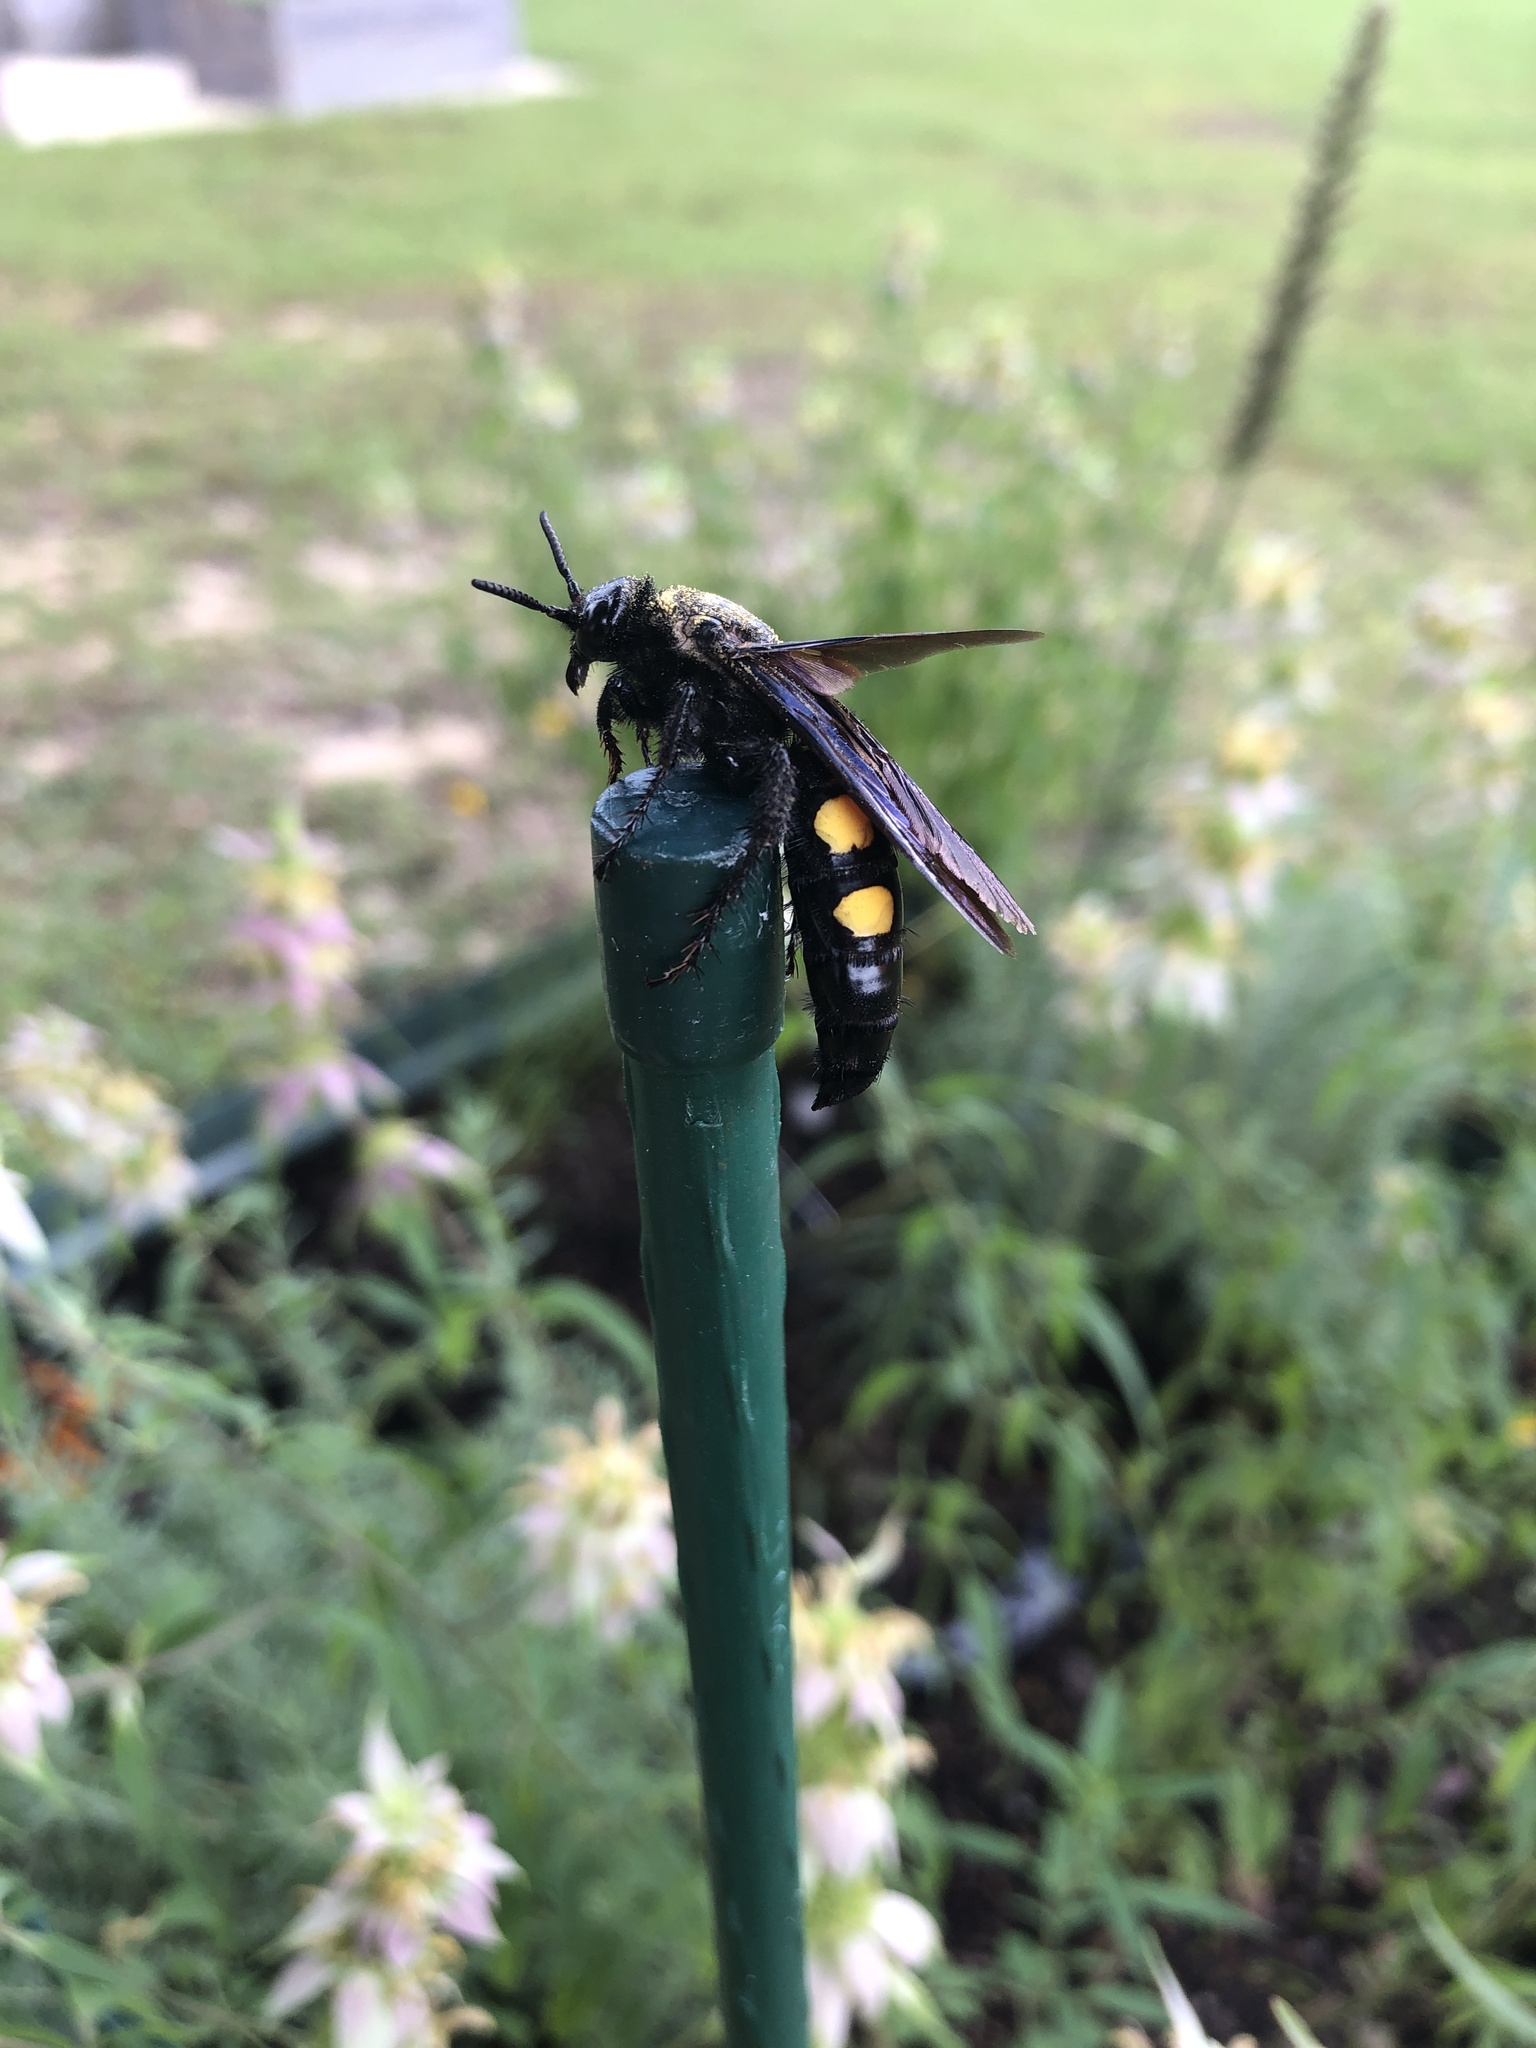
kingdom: Animalia
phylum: Arthropoda
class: Insecta
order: Hymenoptera
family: Scoliidae
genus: Pygodasis
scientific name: Pygodasis
